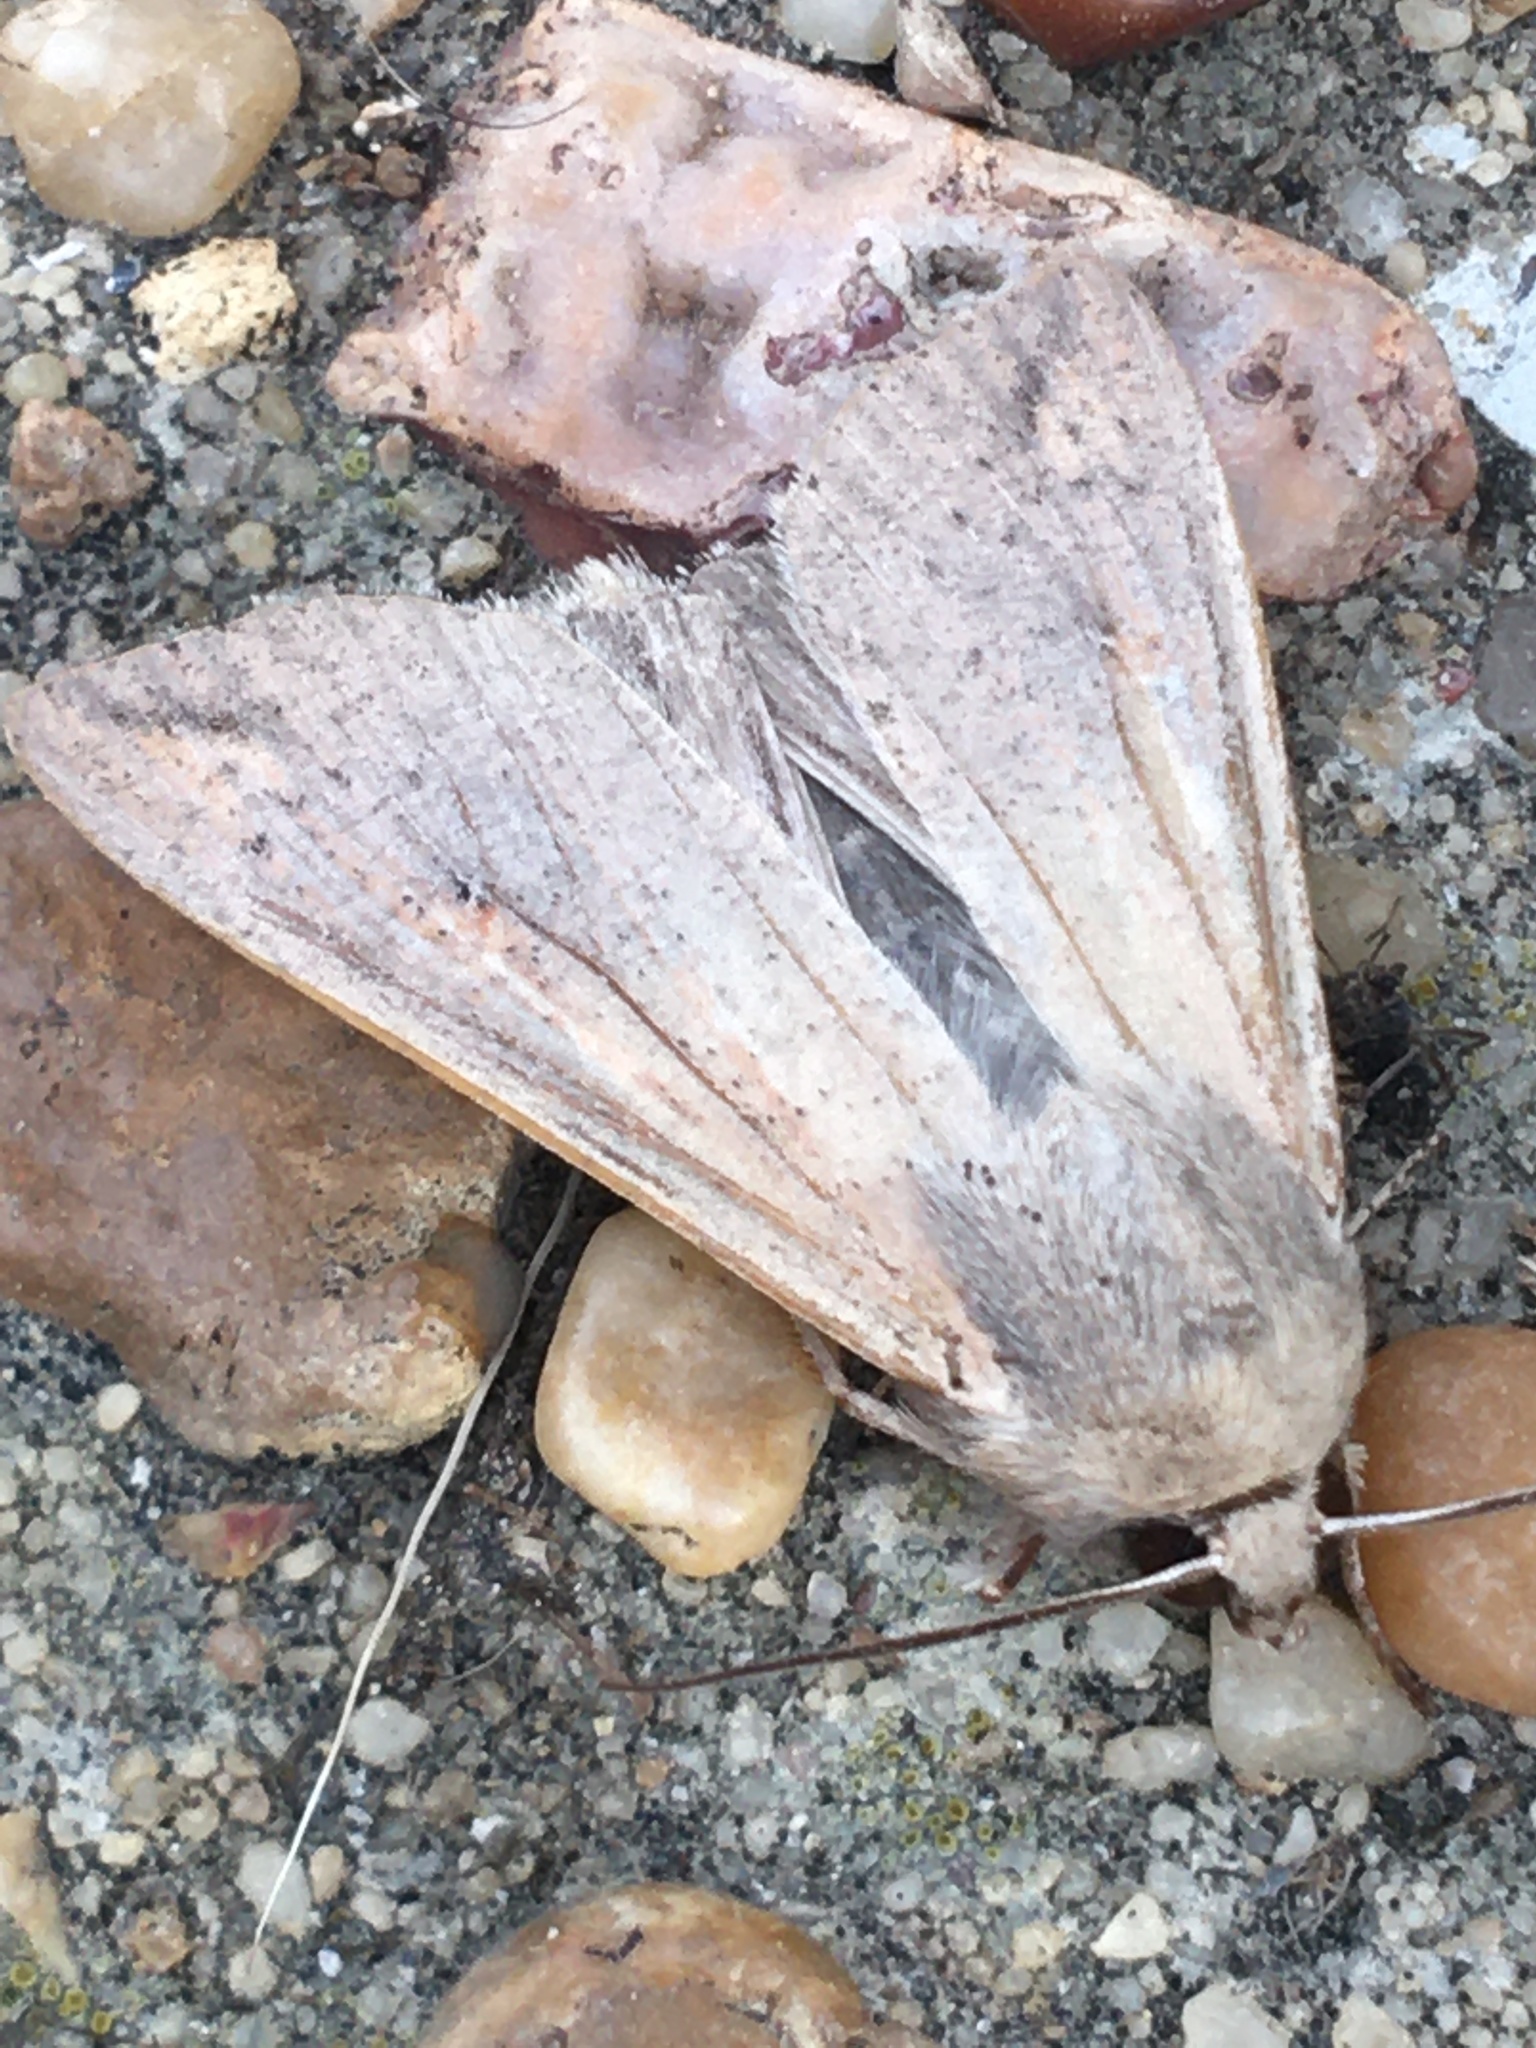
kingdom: Animalia
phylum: Arthropoda
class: Insecta
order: Lepidoptera
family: Noctuidae
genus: Mythimna
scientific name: Mythimna unipuncta
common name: White-speck
